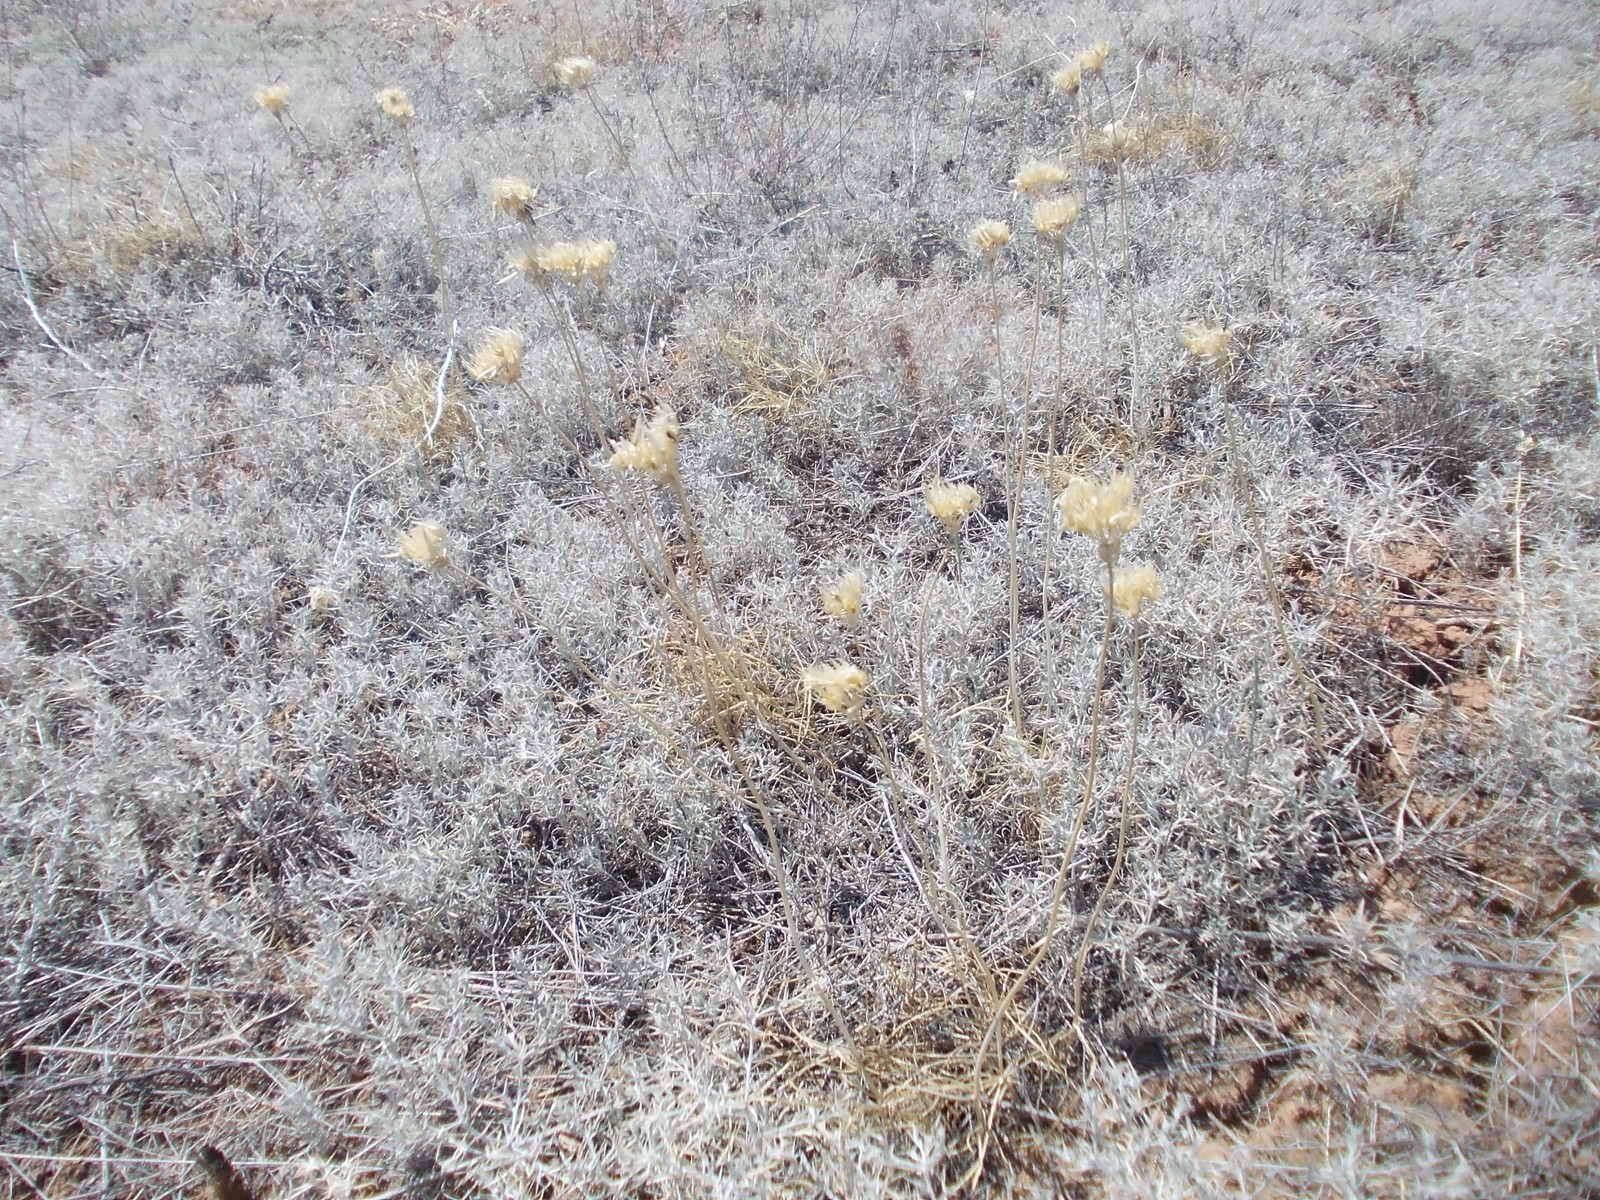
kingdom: Plantae
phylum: Tracheophyta
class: Liliopsida
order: Asparagales
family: Amaryllidaceae
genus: Allium
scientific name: Allium inderiense
